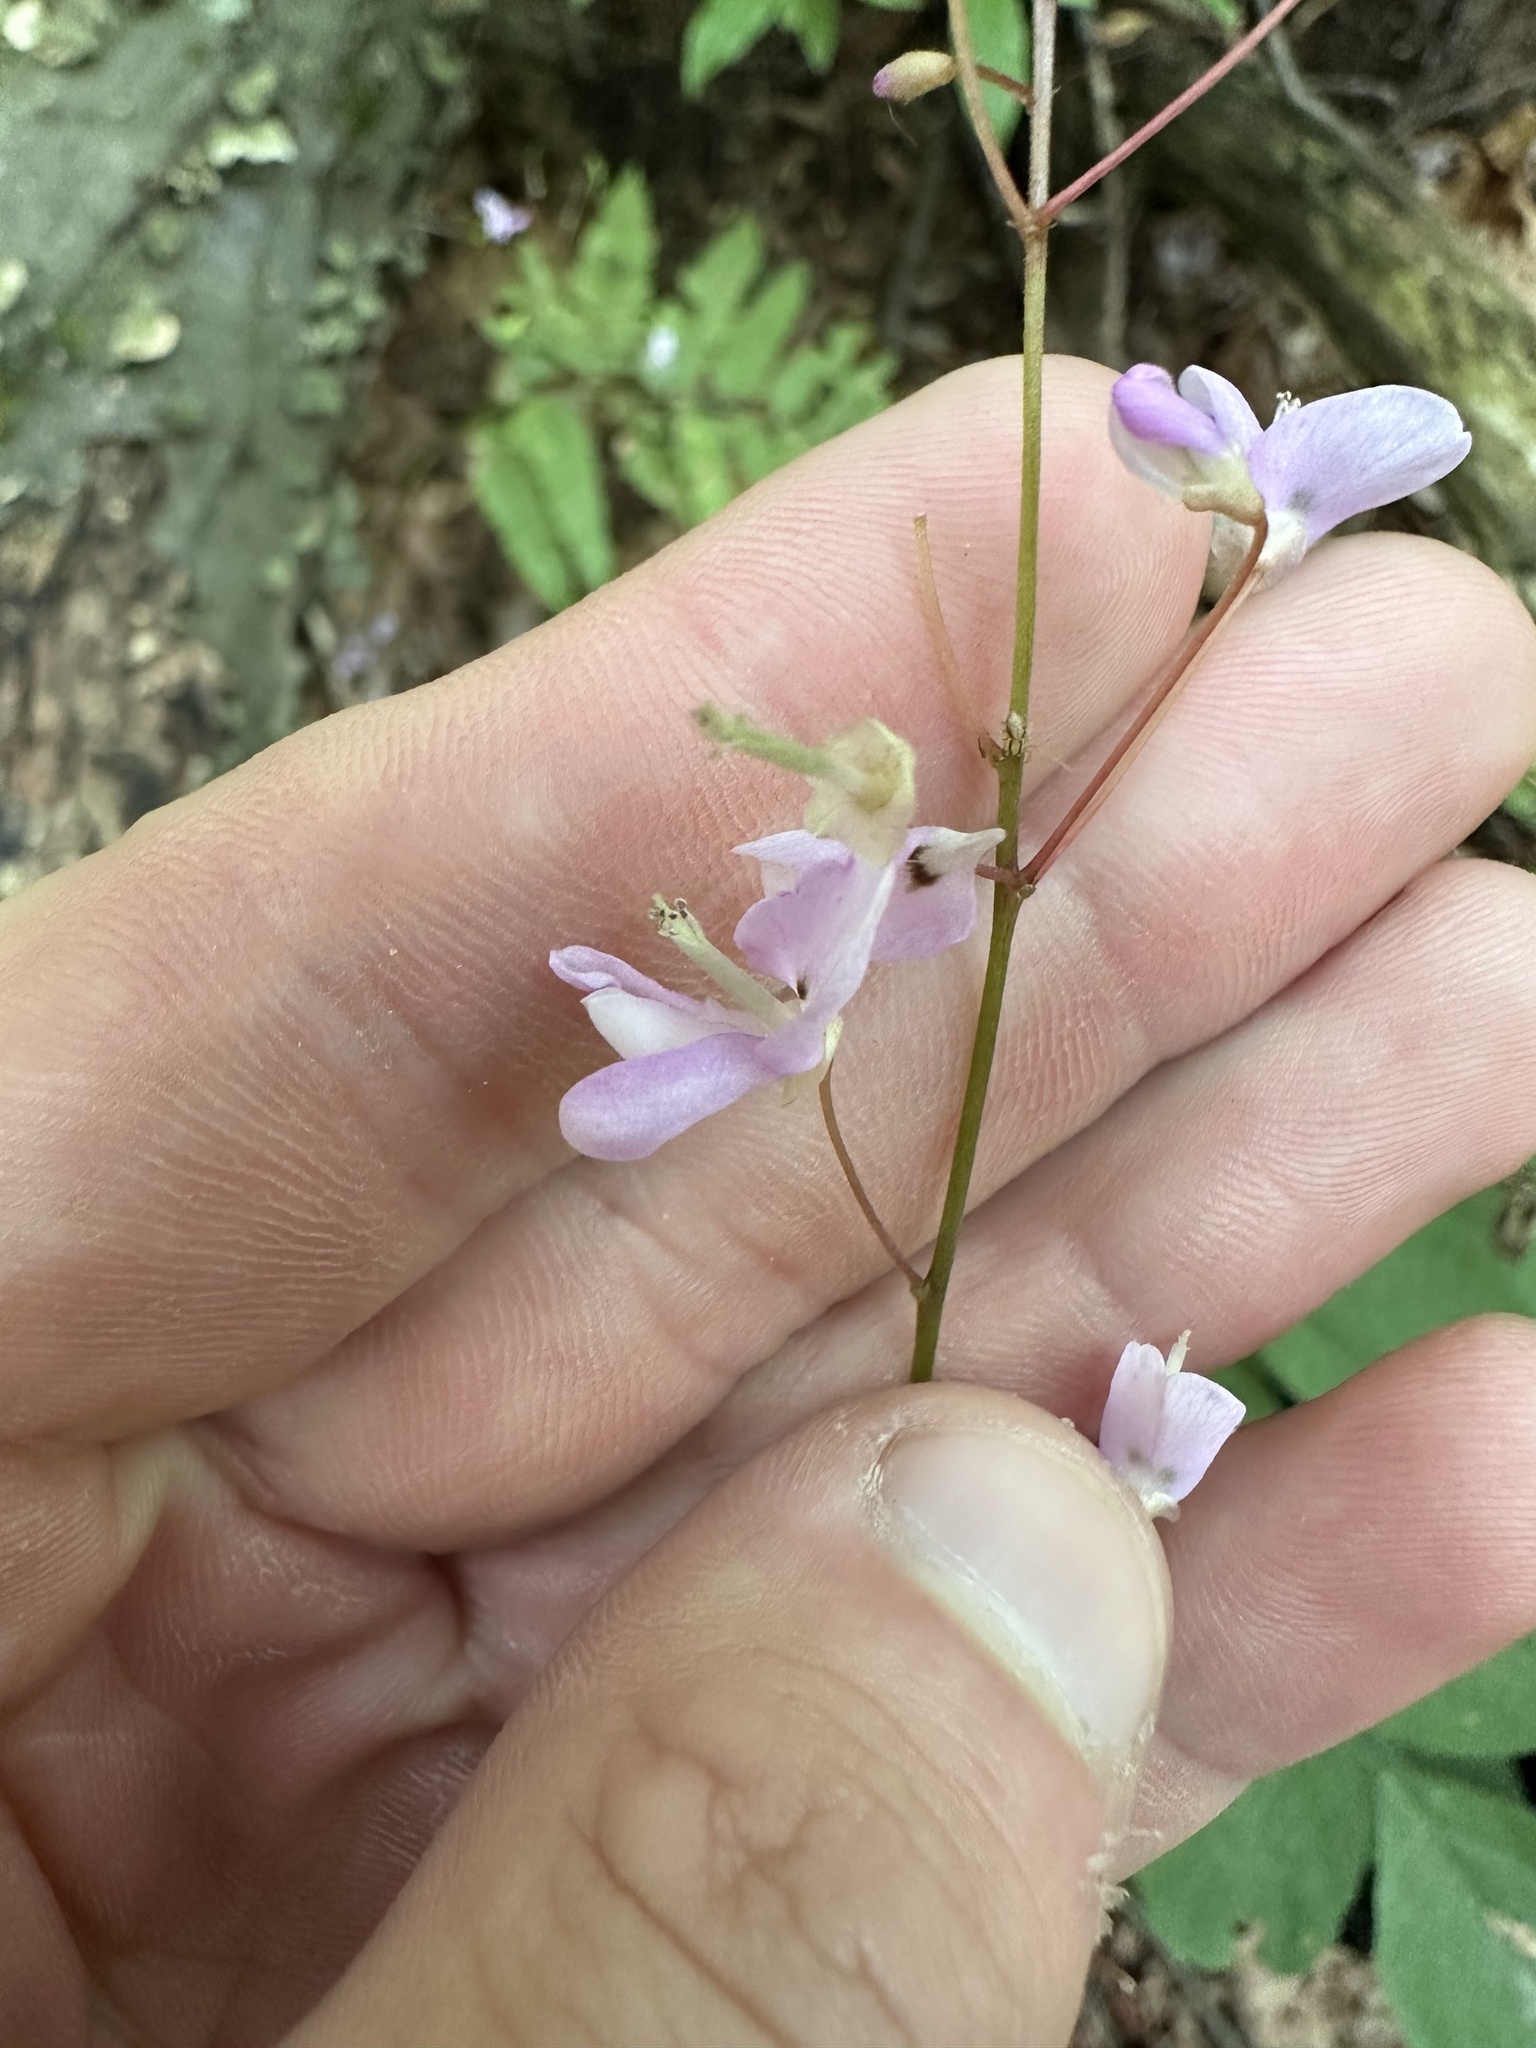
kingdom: Plantae
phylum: Tracheophyta
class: Magnoliopsida
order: Fabales
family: Fabaceae
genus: Hylodesmum
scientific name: Hylodesmum nudiflorum
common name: Bare-stemmed tick-trefoil
